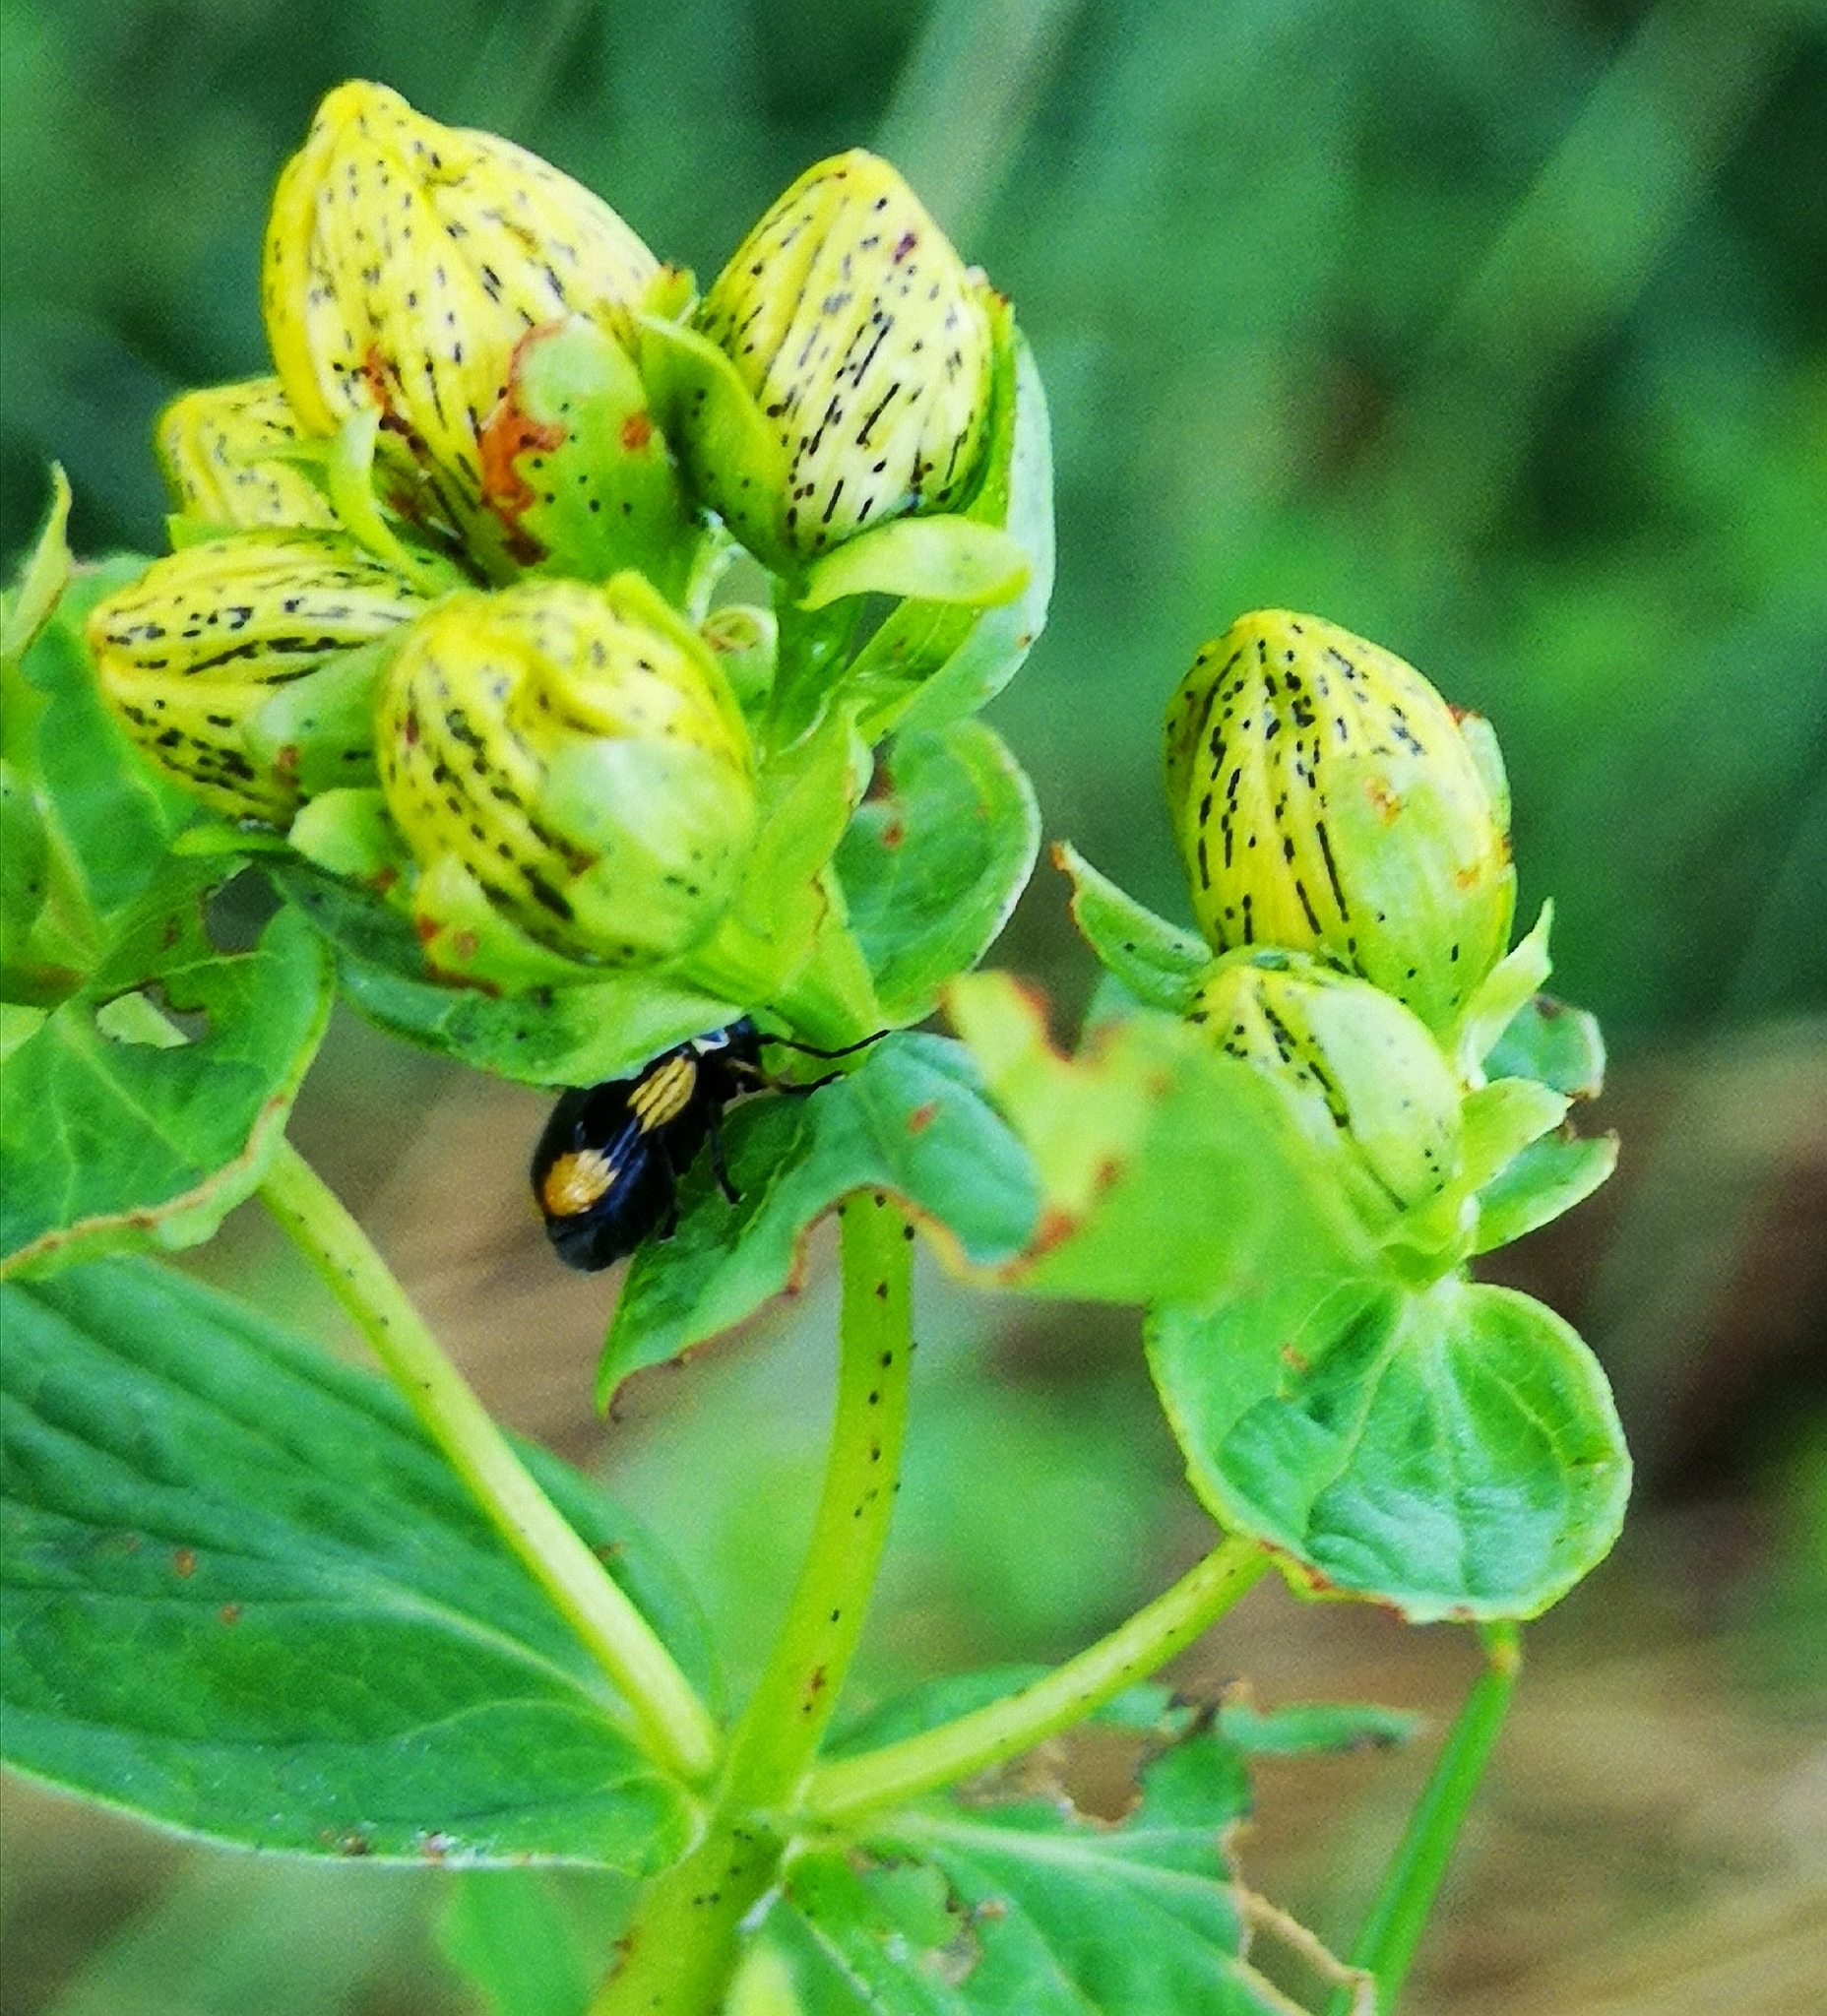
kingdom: Animalia
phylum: Arthropoda
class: Insecta
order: Coleoptera
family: Chrysomelidae
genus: Cryptocephalus
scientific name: Cryptocephalus moraei
